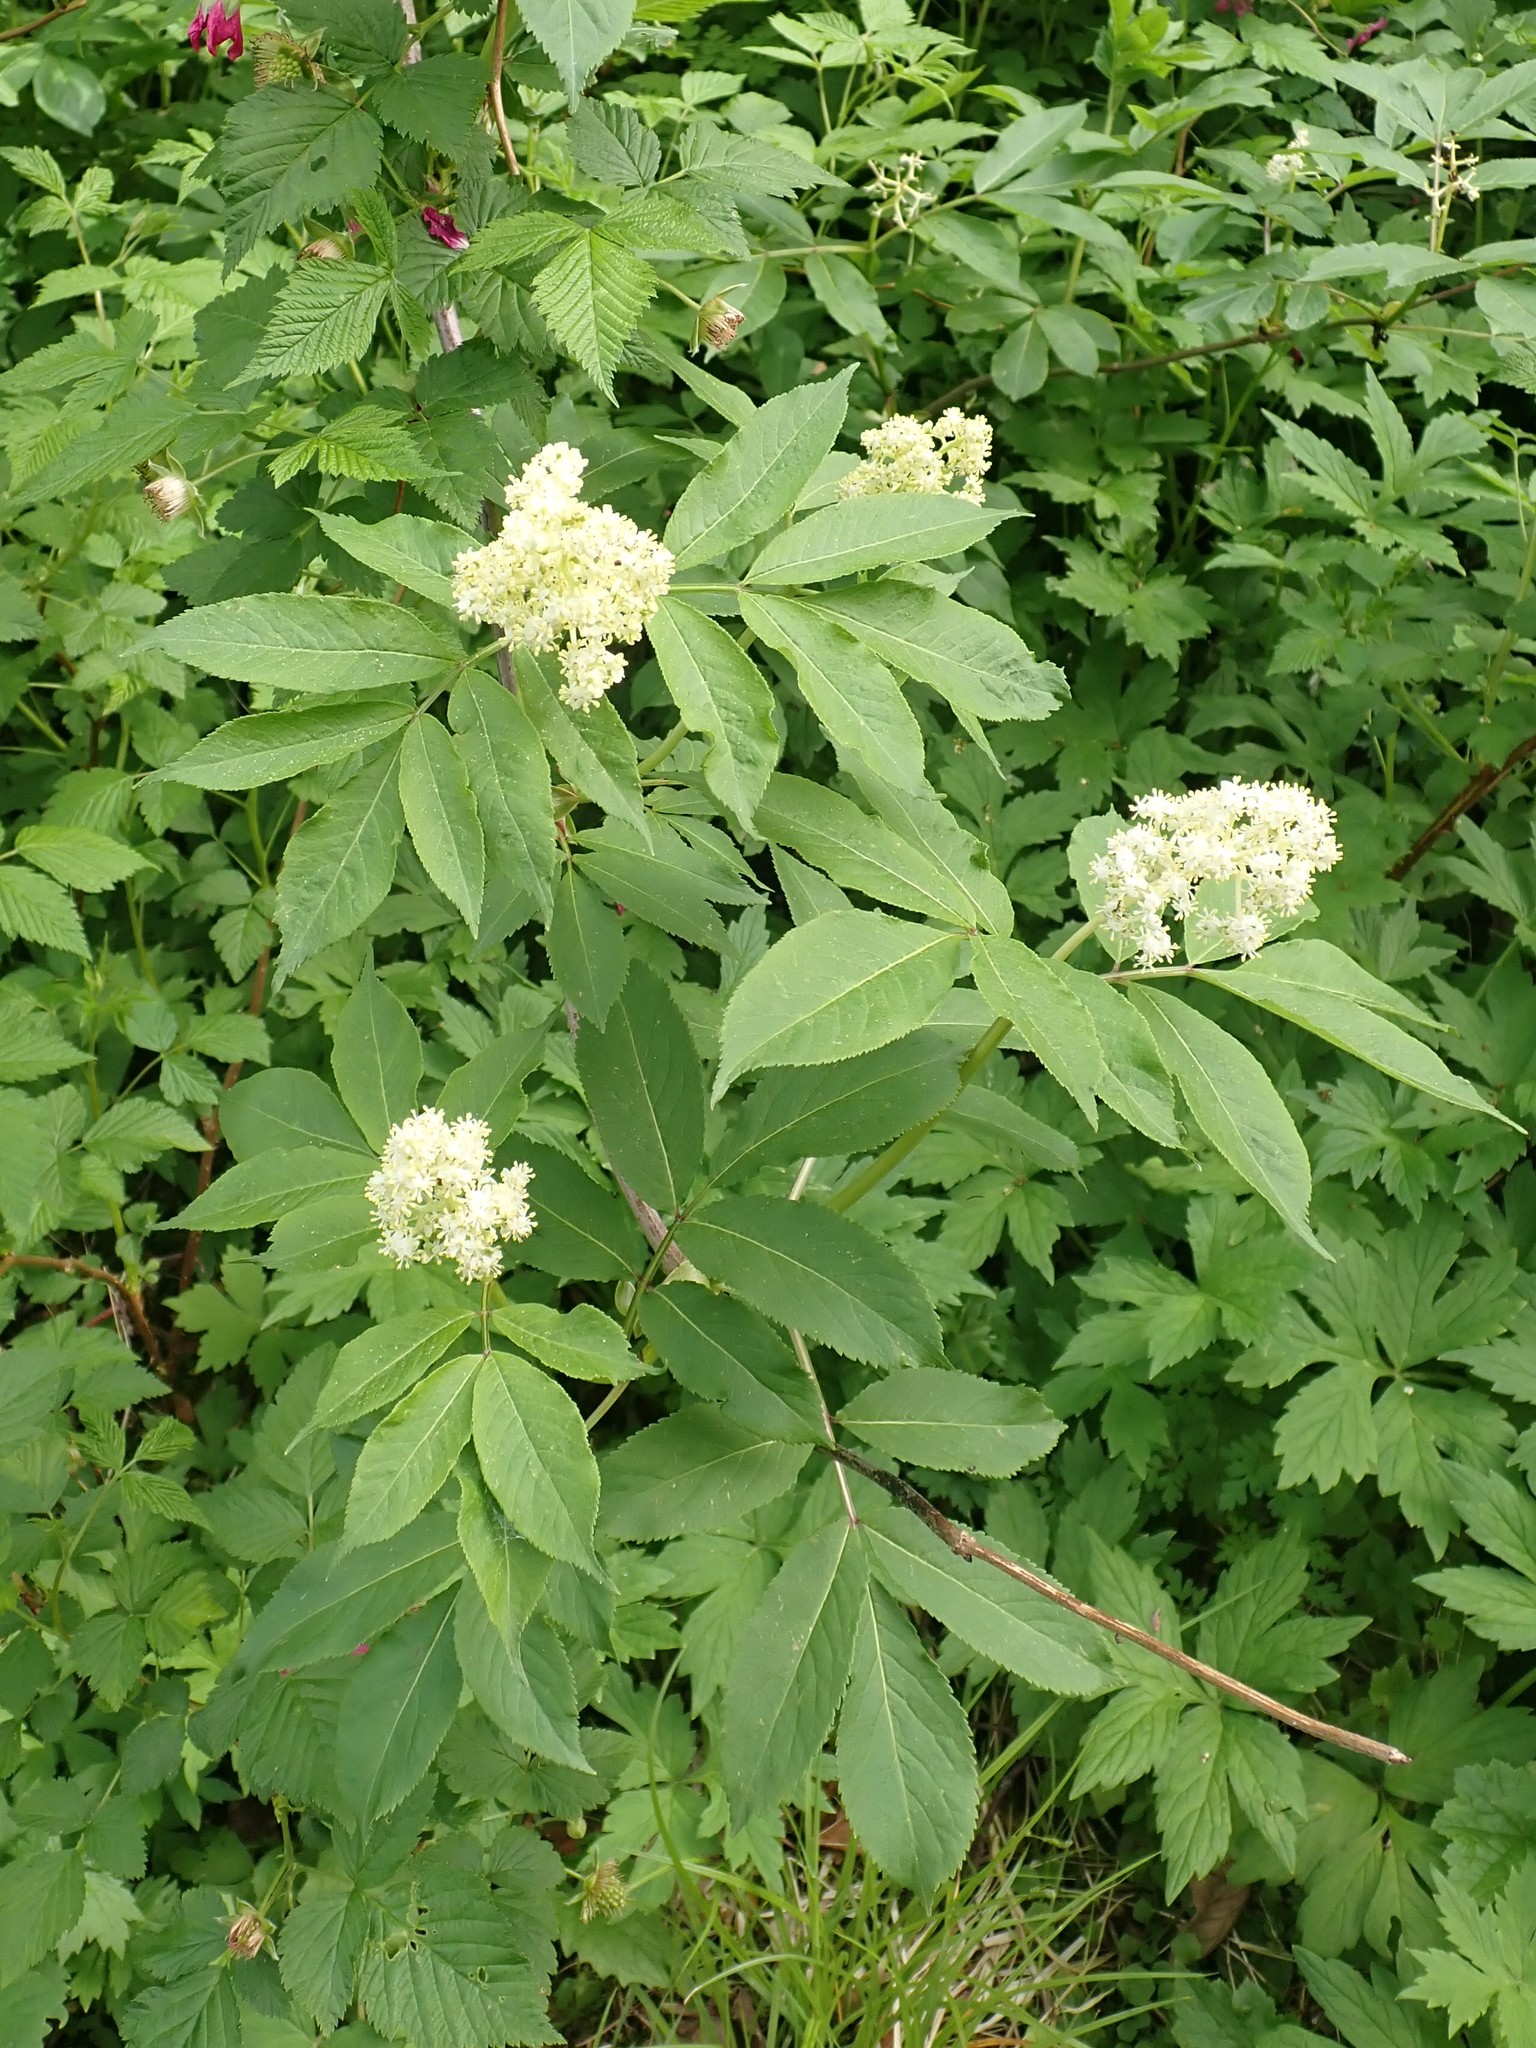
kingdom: Plantae
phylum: Tracheophyta
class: Magnoliopsida
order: Dipsacales
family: Viburnaceae
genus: Sambucus
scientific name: Sambucus racemosa
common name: Red-berried elder
